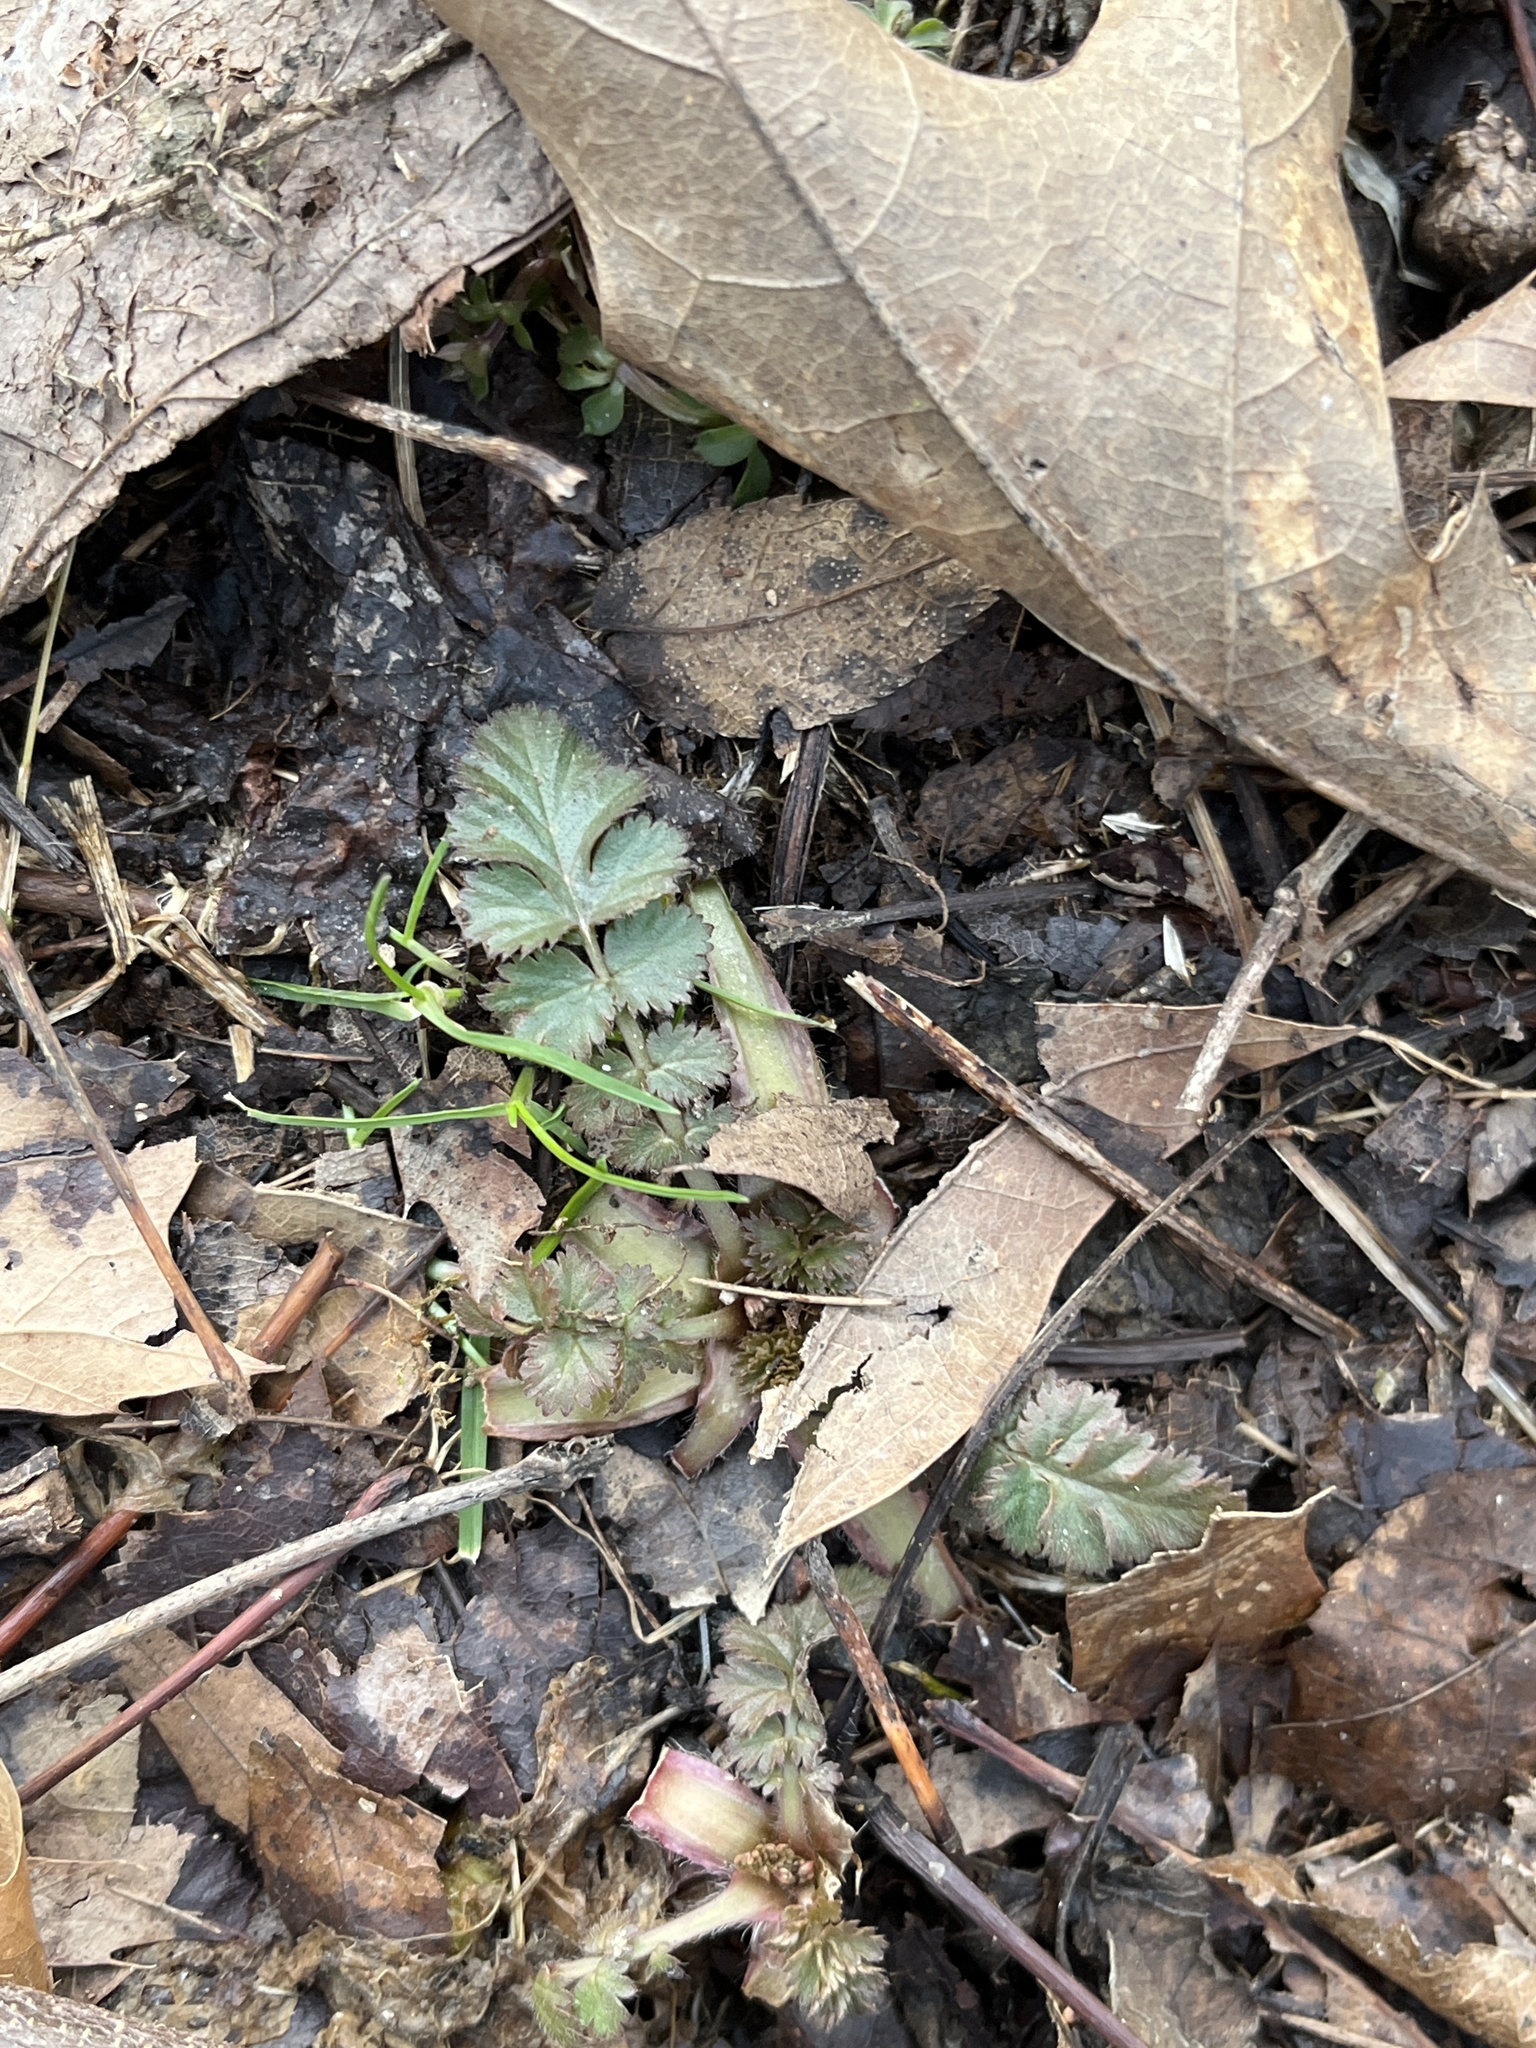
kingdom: Plantae
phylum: Tracheophyta
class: Magnoliopsida
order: Rosales
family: Rosaceae
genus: Geum
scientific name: Geum canadense
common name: White avens
